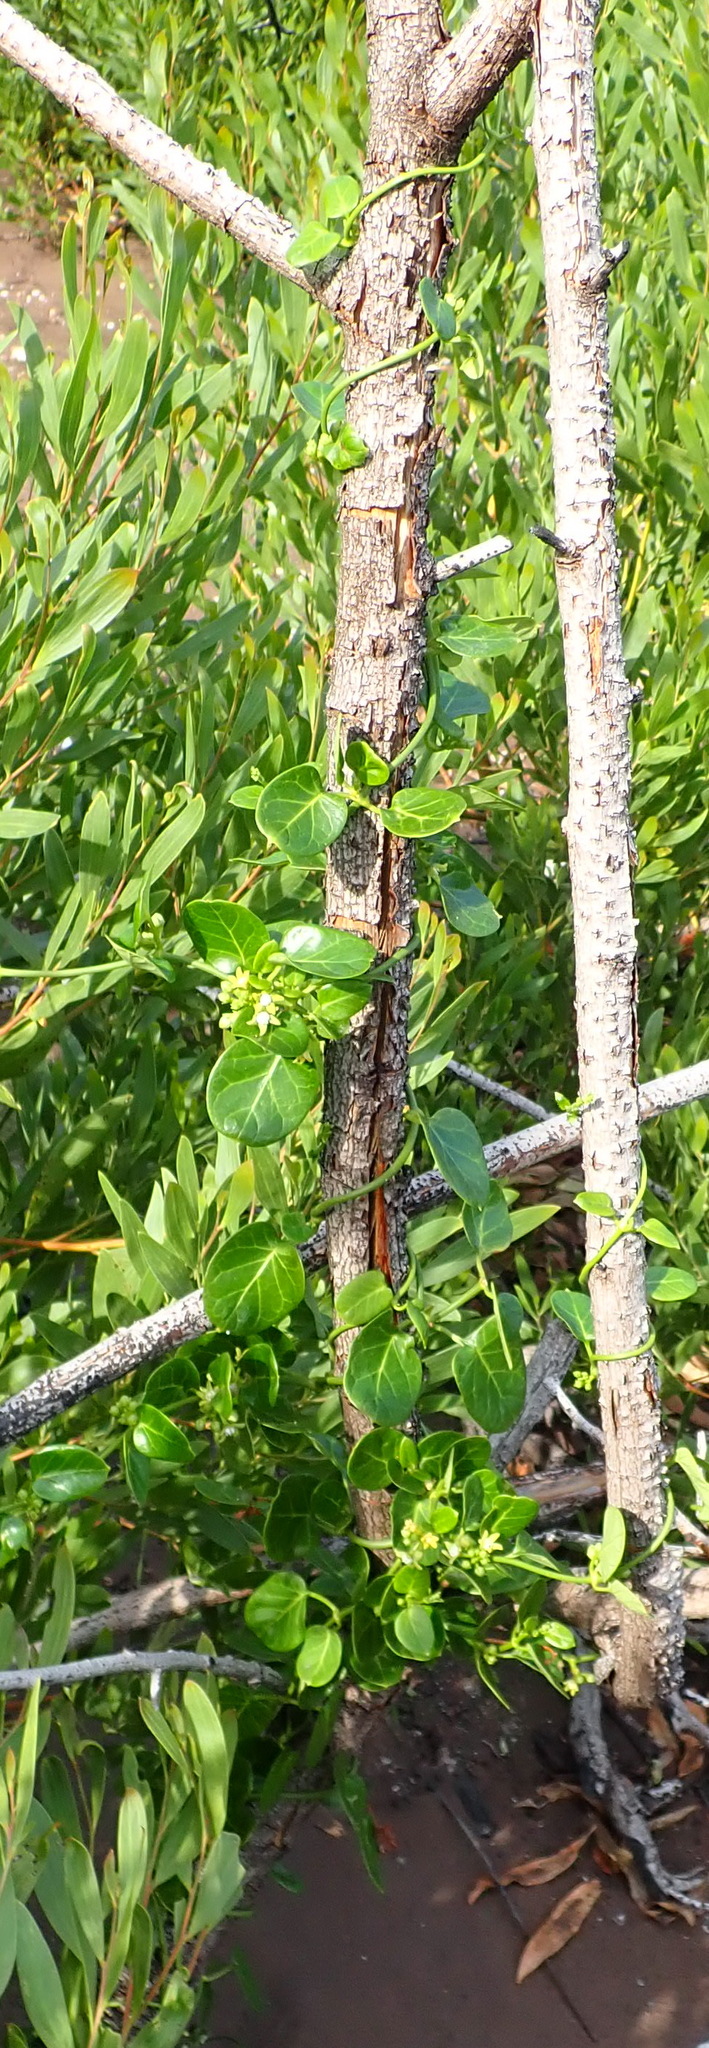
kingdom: Plantae
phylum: Tracheophyta
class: Magnoliopsida
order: Gentianales
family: Apocynaceae
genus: Cynanchum
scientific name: Cynanchum obtusifolium
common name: Monkey-rope
